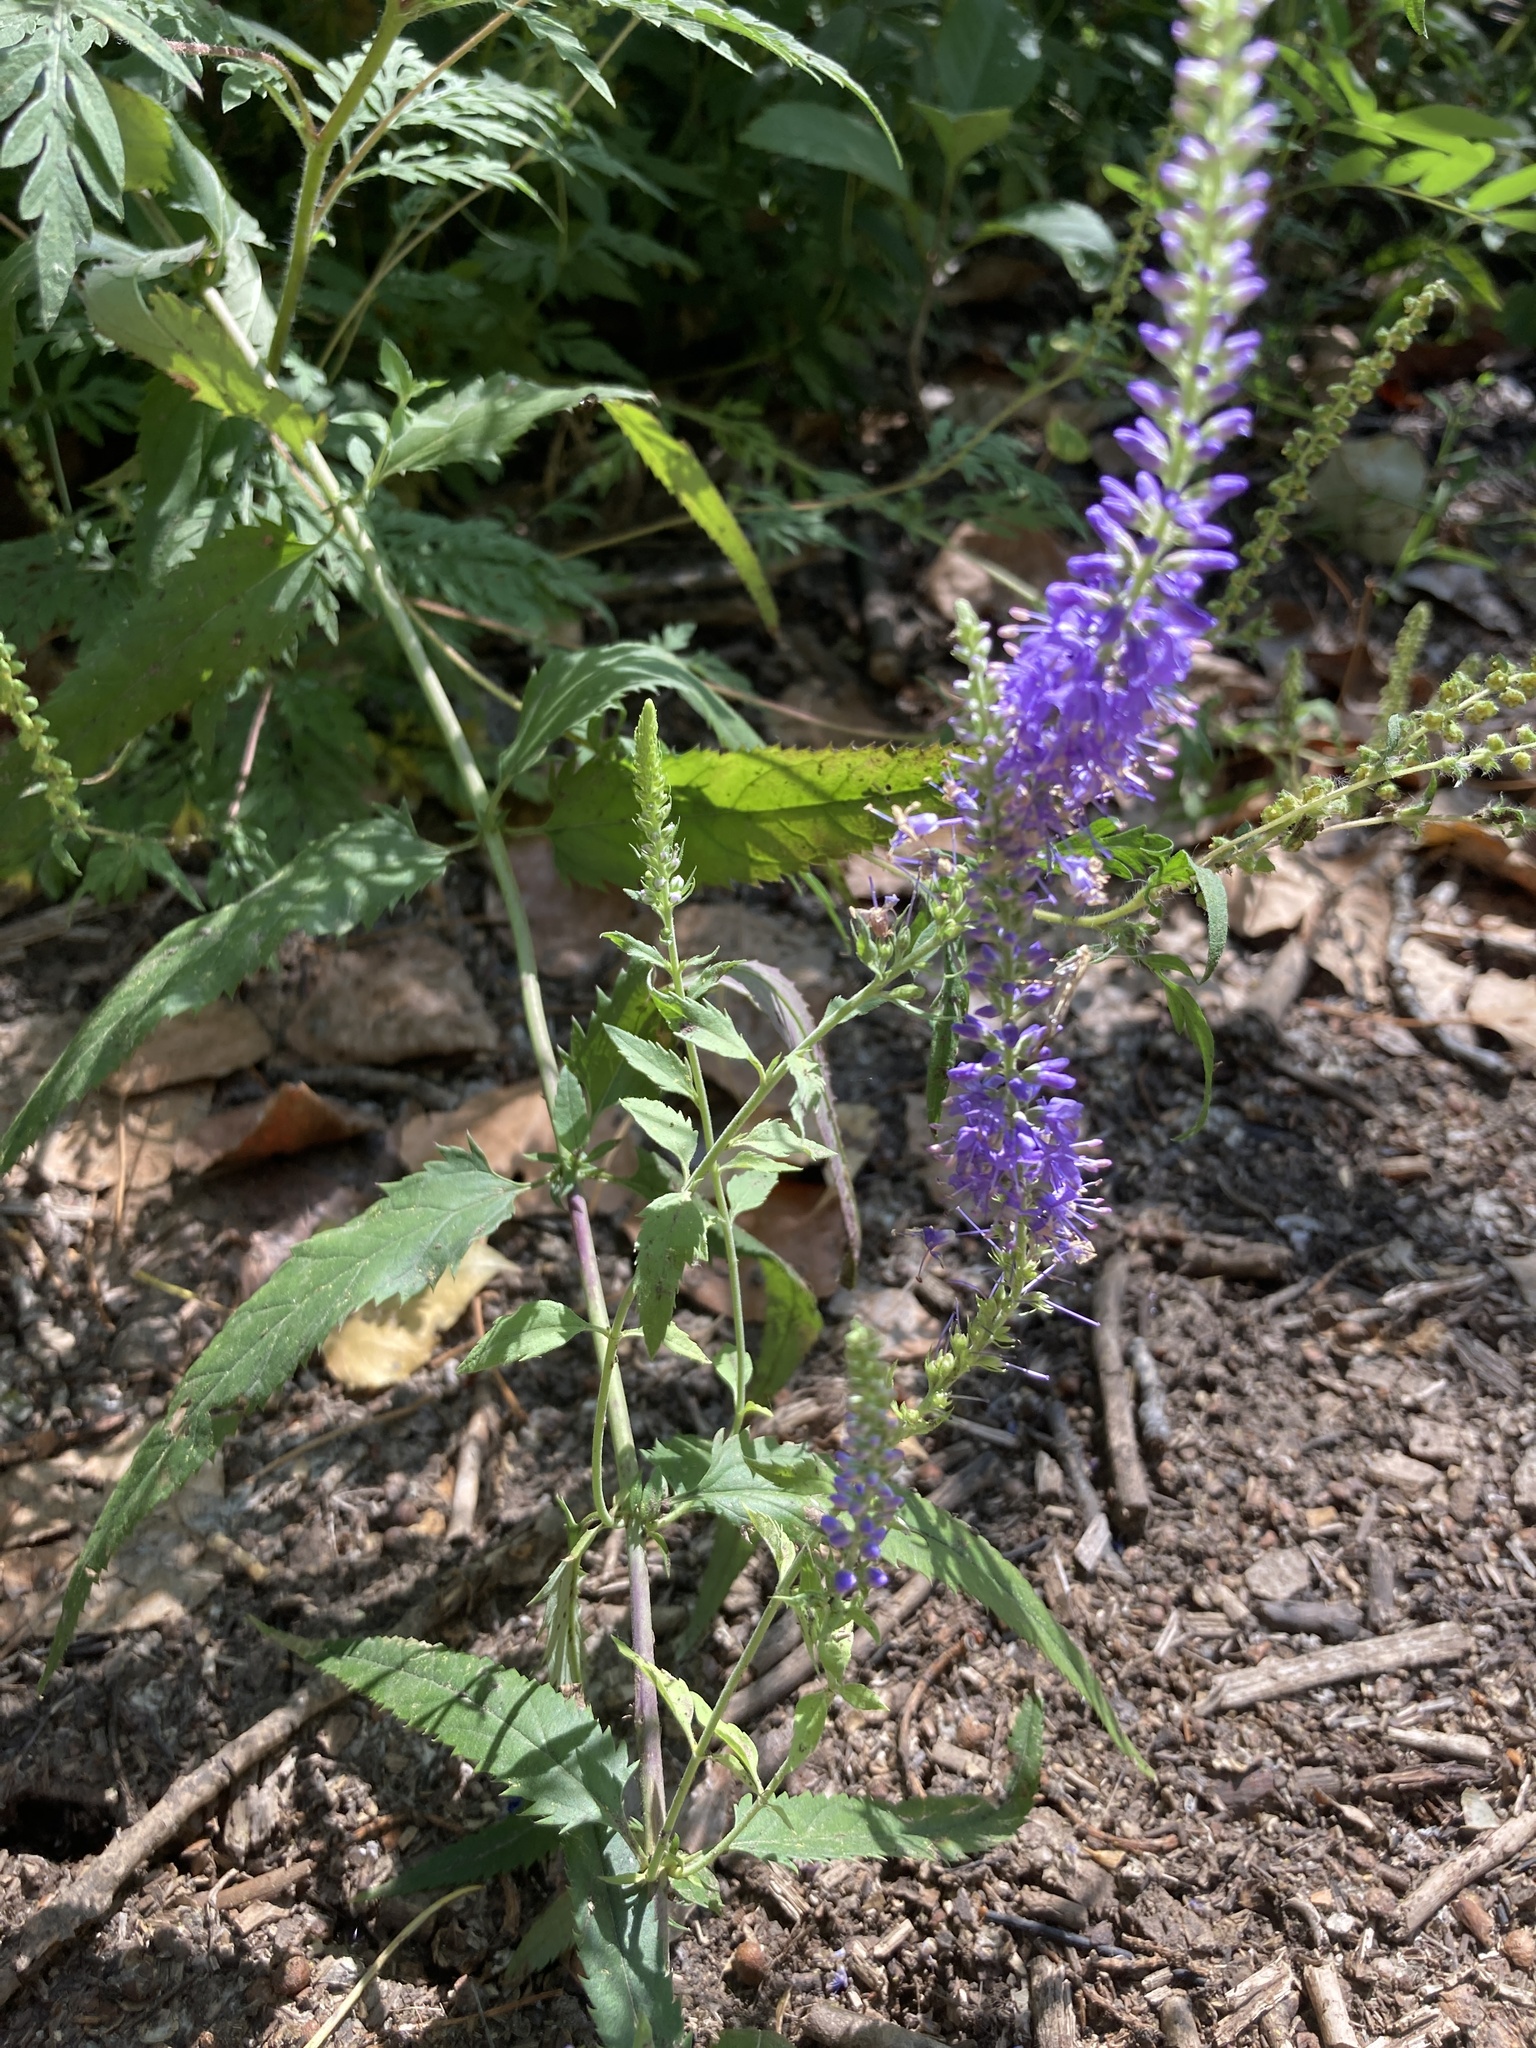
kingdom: Plantae
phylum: Tracheophyta
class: Magnoliopsida
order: Lamiales
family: Plantaginaceae
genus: Veronica
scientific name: Veronica longifolia
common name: Garden speedwell
